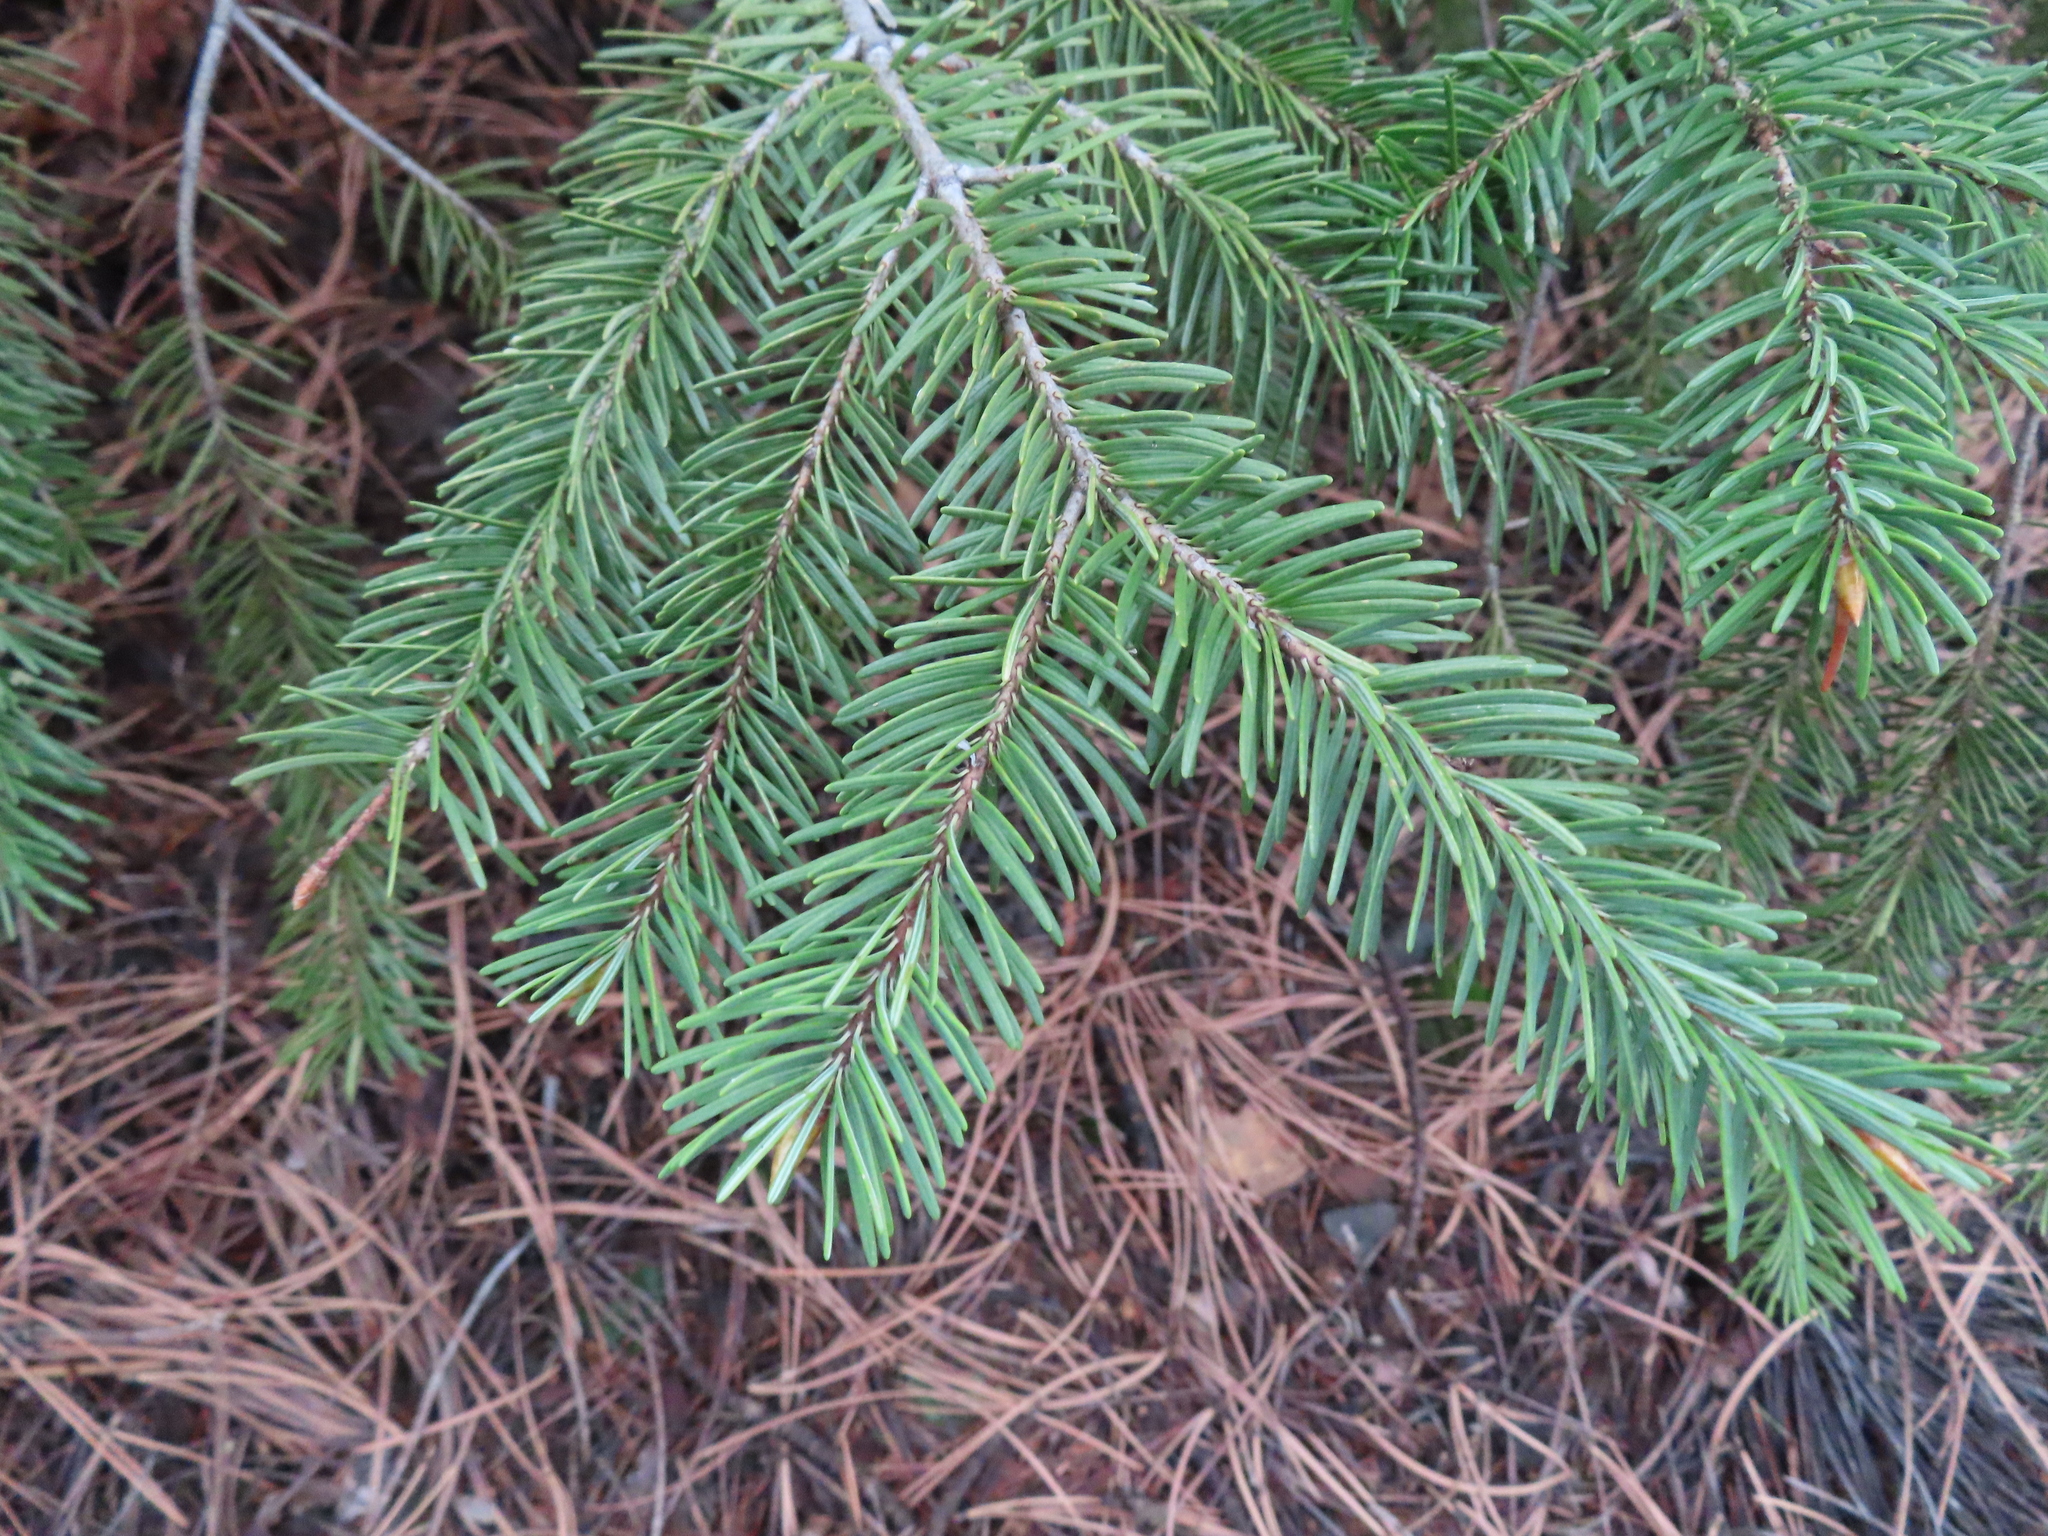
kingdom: Plantae
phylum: Tracheophyta
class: Pinopsida
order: Pinales
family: Pinaceae
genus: Pseudotsuga
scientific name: Pseudotsuga menziesii
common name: Douglas fir
